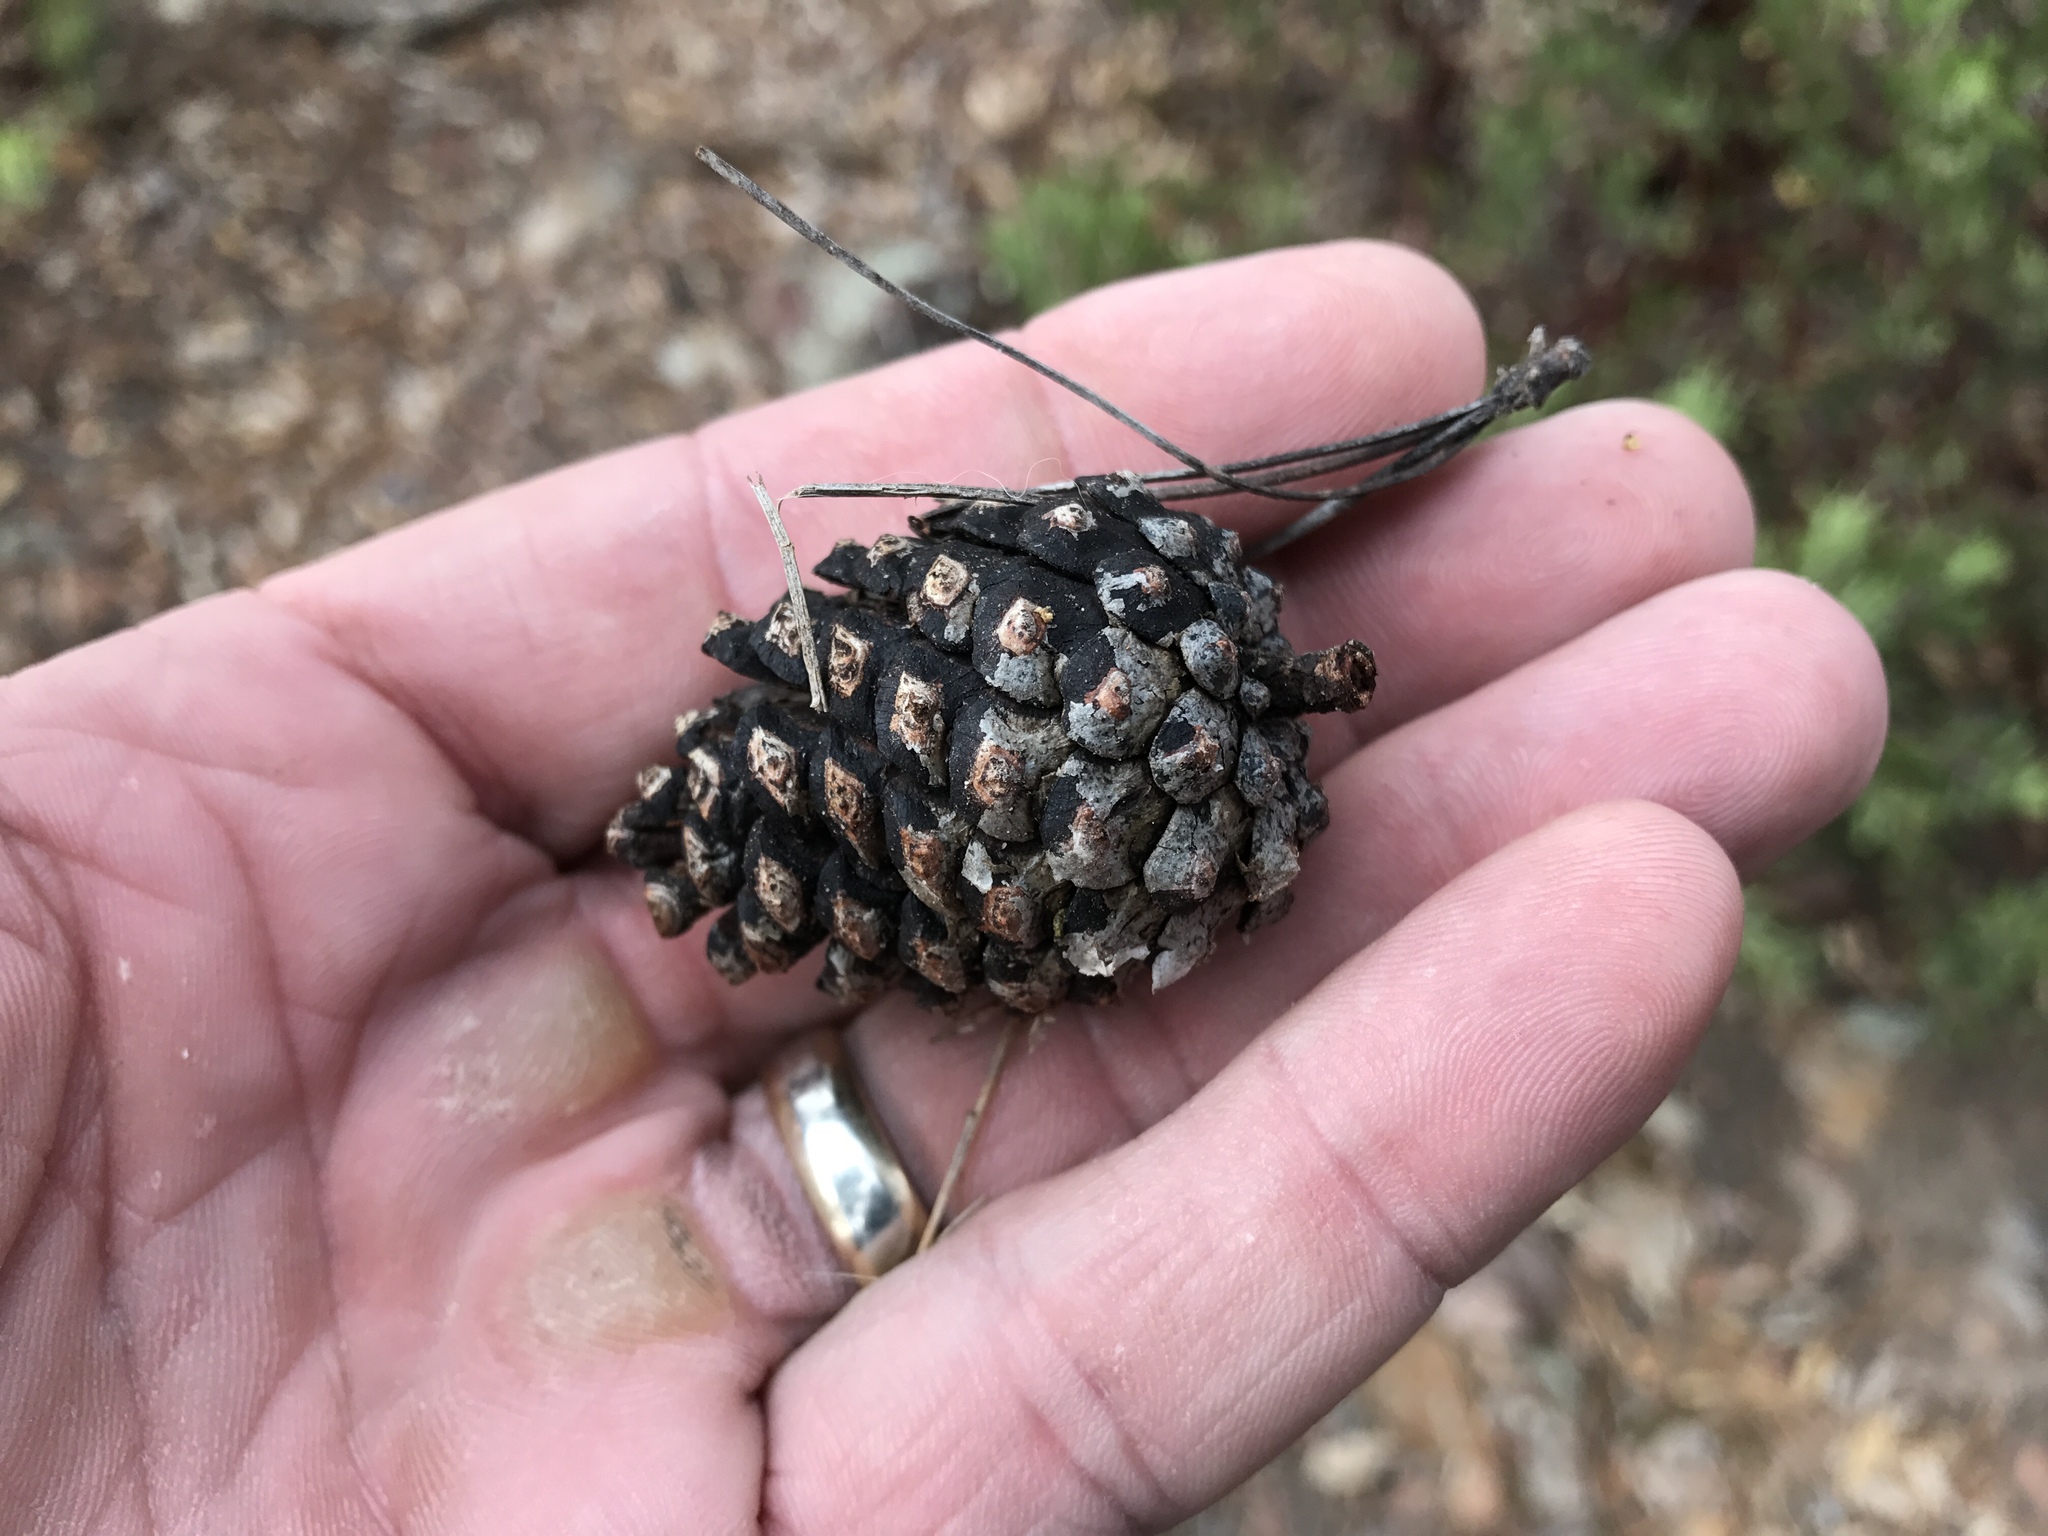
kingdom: Plantae
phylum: Tracheophyta
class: Pinopsida
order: Pinales
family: Pinaceae
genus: Pinus
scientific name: Pinus leiophylla
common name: Chihuahua pine
